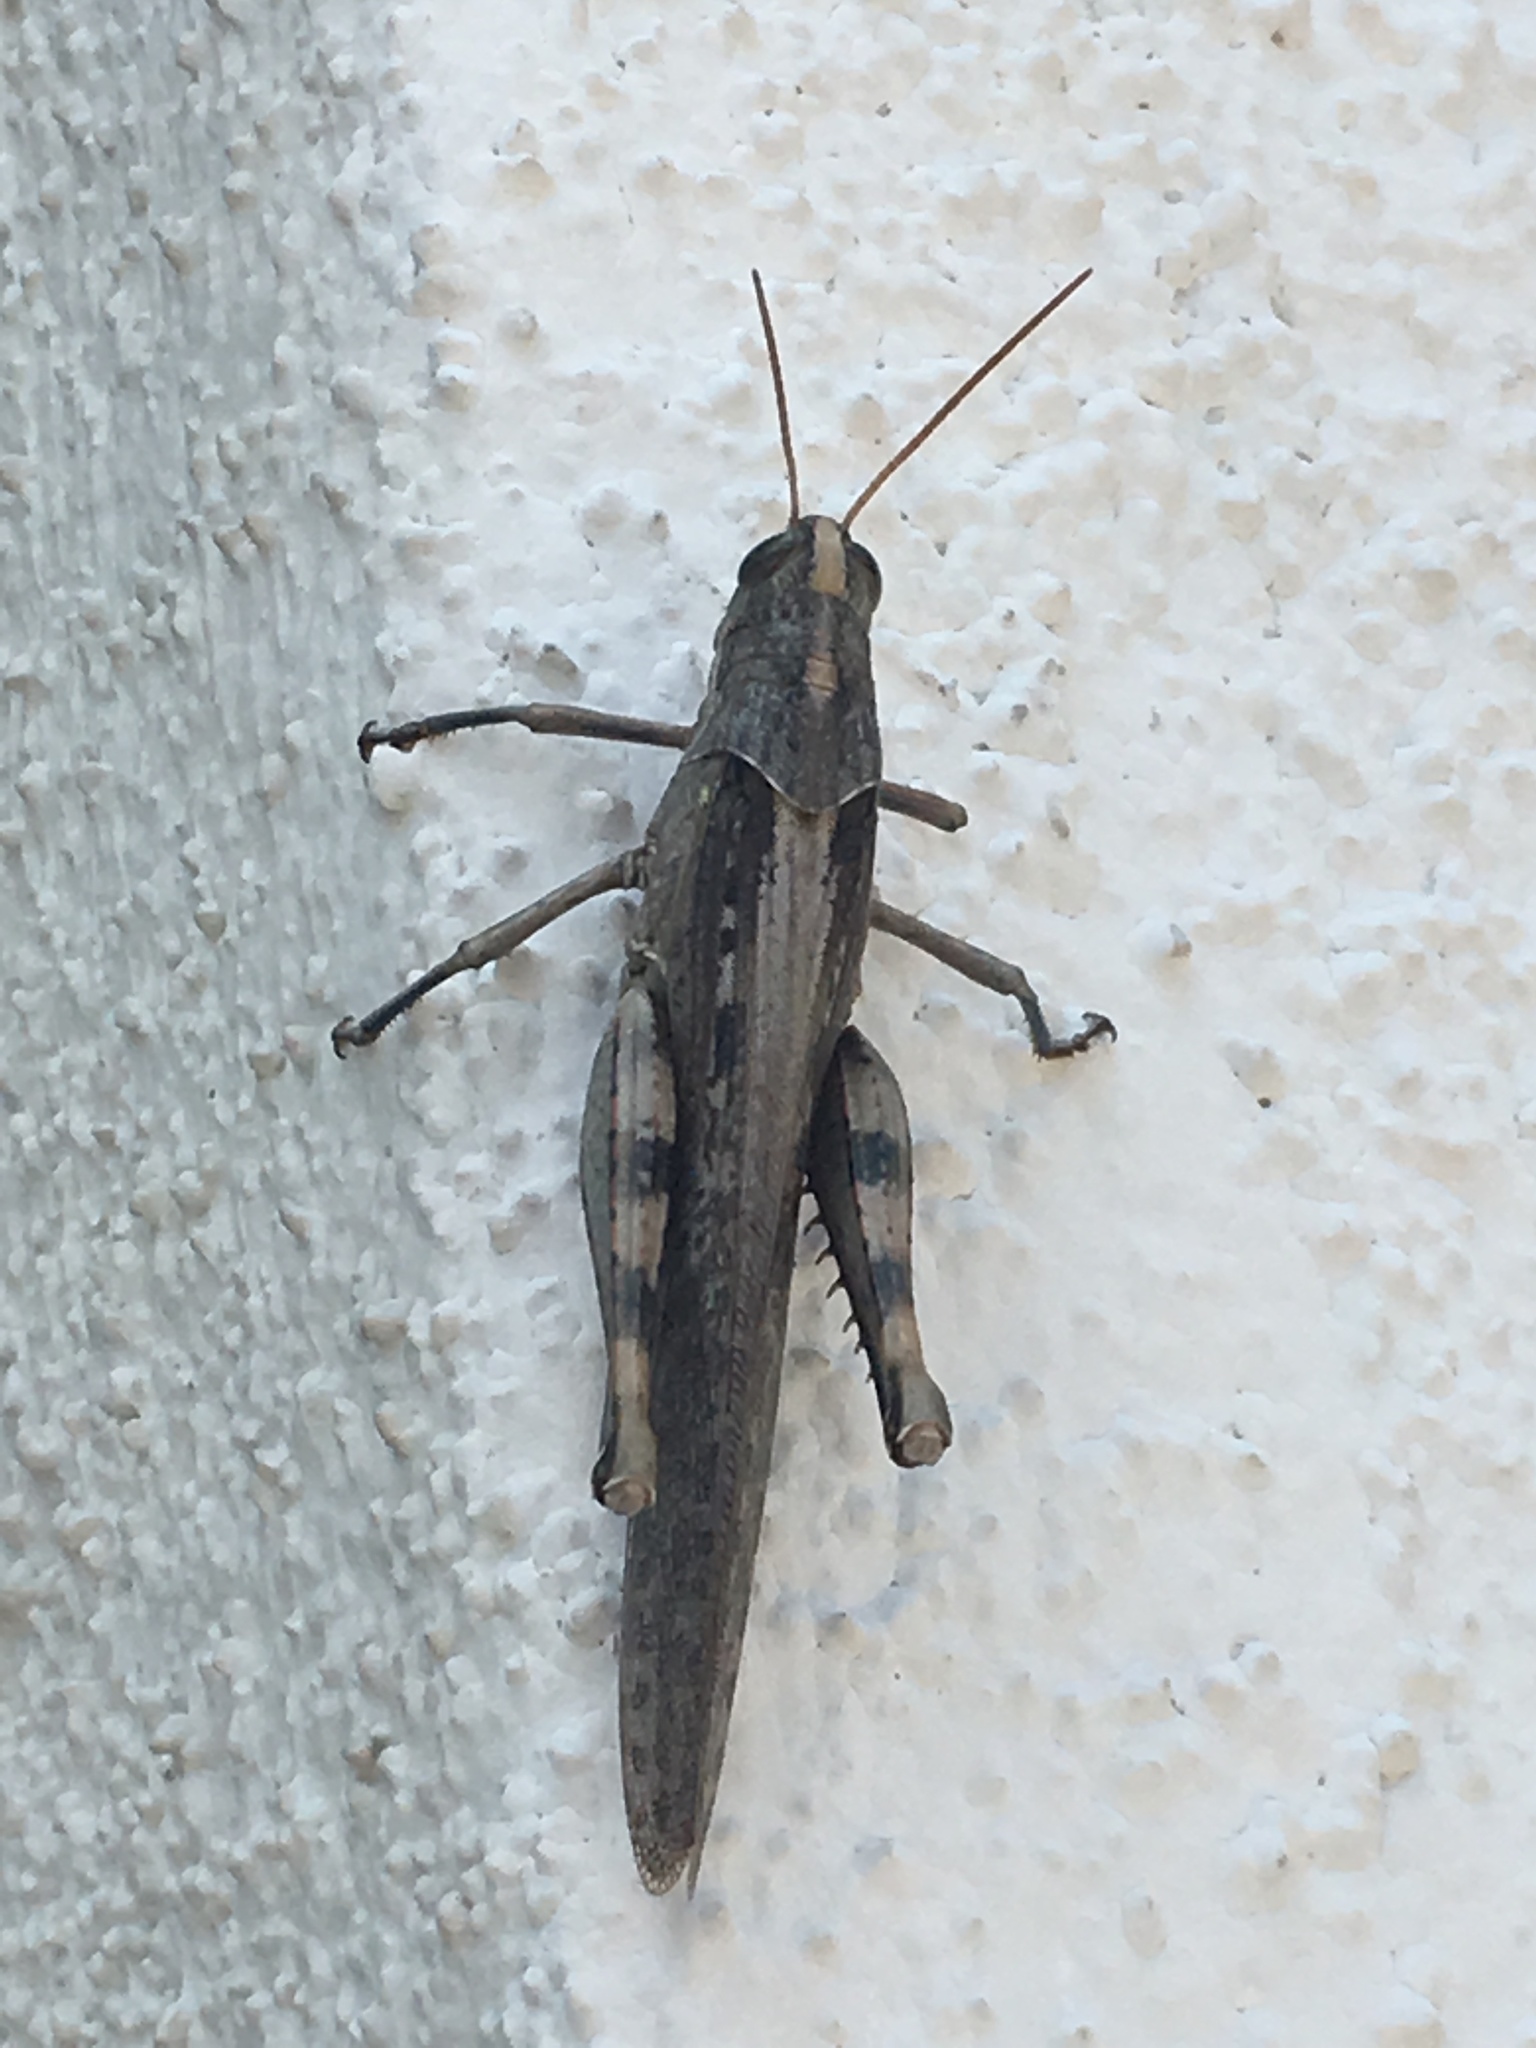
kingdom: Animalia
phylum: Arthropoda
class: Insecta
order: Orthoptera
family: Acrididae
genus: Schistocerca
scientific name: Schistocerca nitens
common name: Vagrant grasshopper
